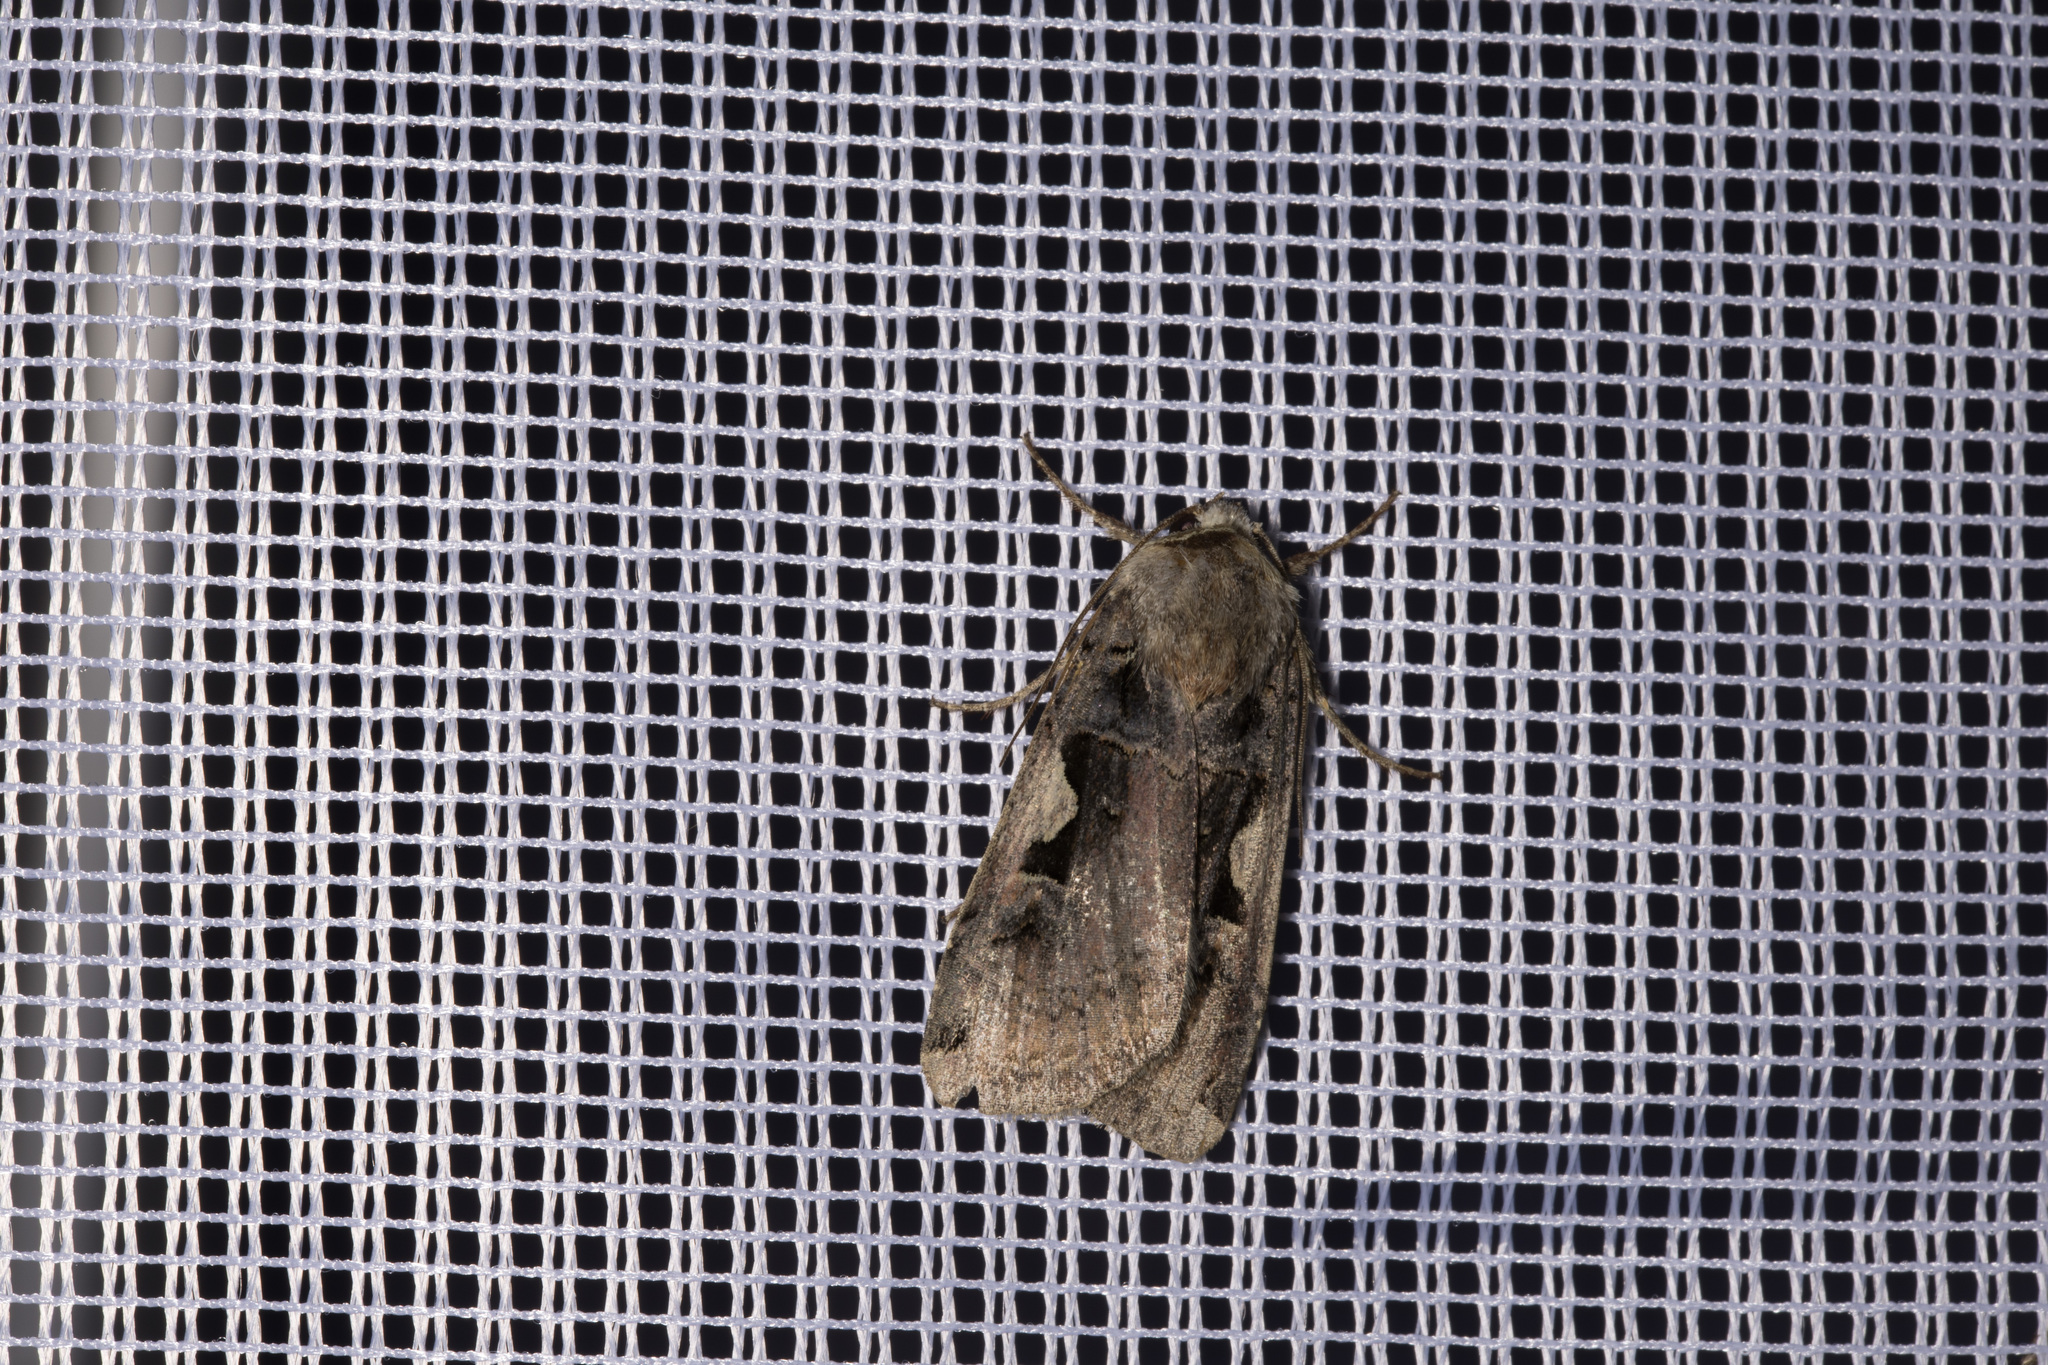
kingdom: Animalia
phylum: Arthropoda
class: Insecta
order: Lepidoptera
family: Noctuidae
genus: Xestia
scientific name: Xestia c-nigrum
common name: Setaceous hebrew character
